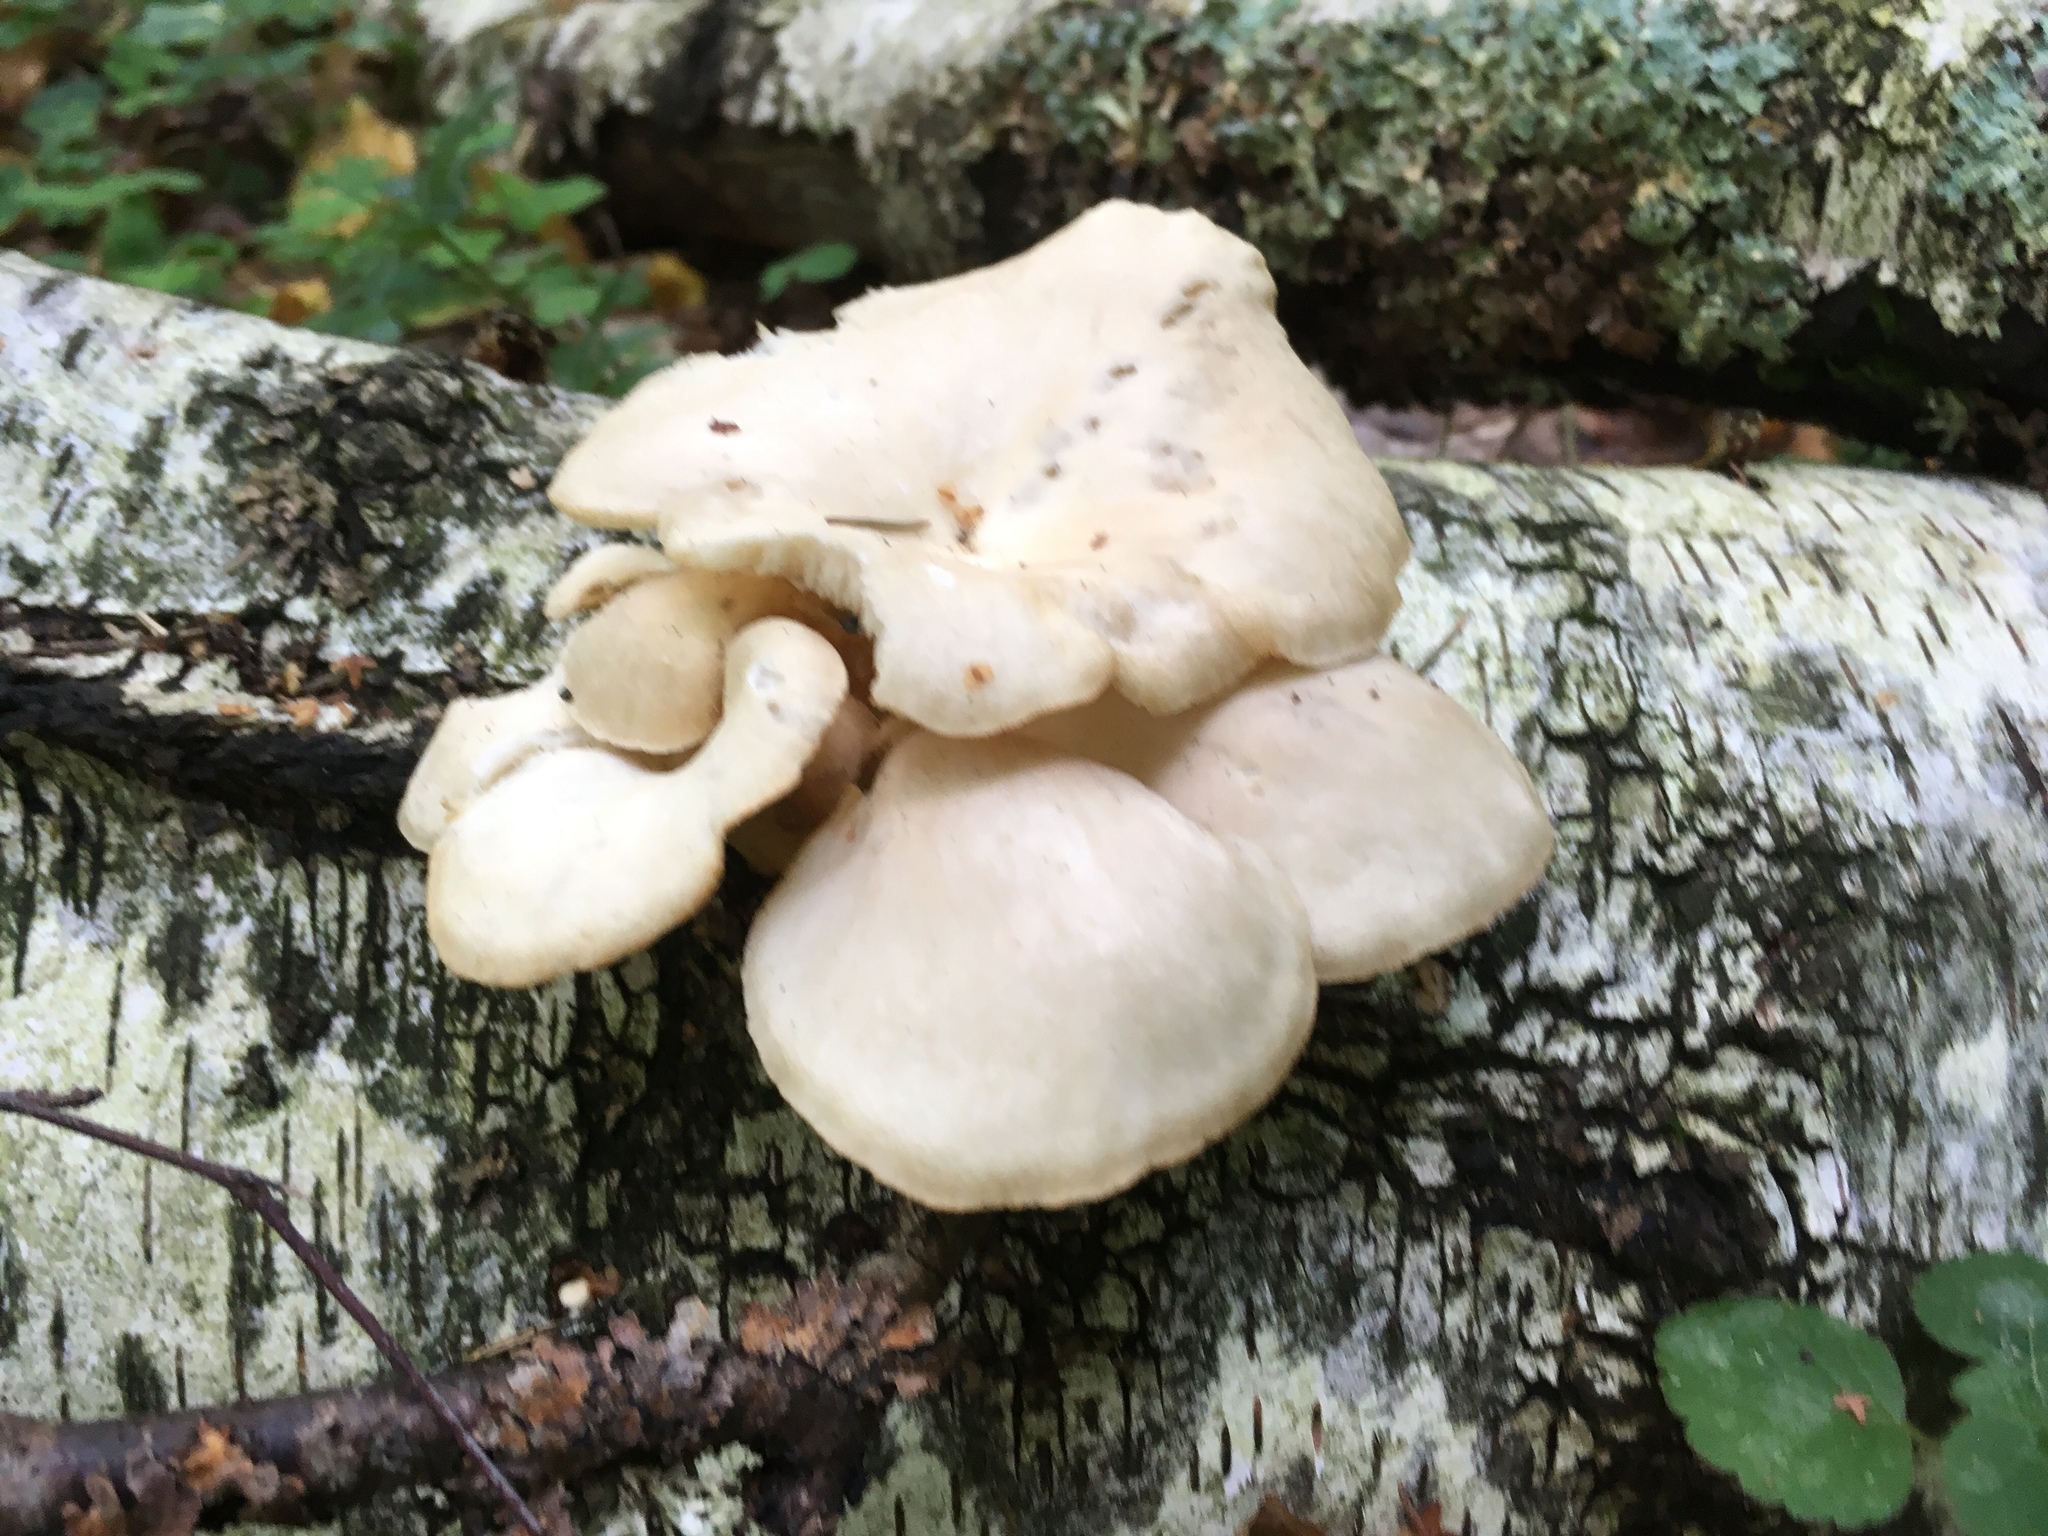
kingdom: Fungi
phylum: Basidiomycota
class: Agaricomycetes
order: Agaricales
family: Pleurotaceae
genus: Pleurotus
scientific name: Pleurotus pulmonarius
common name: Pale oyster
